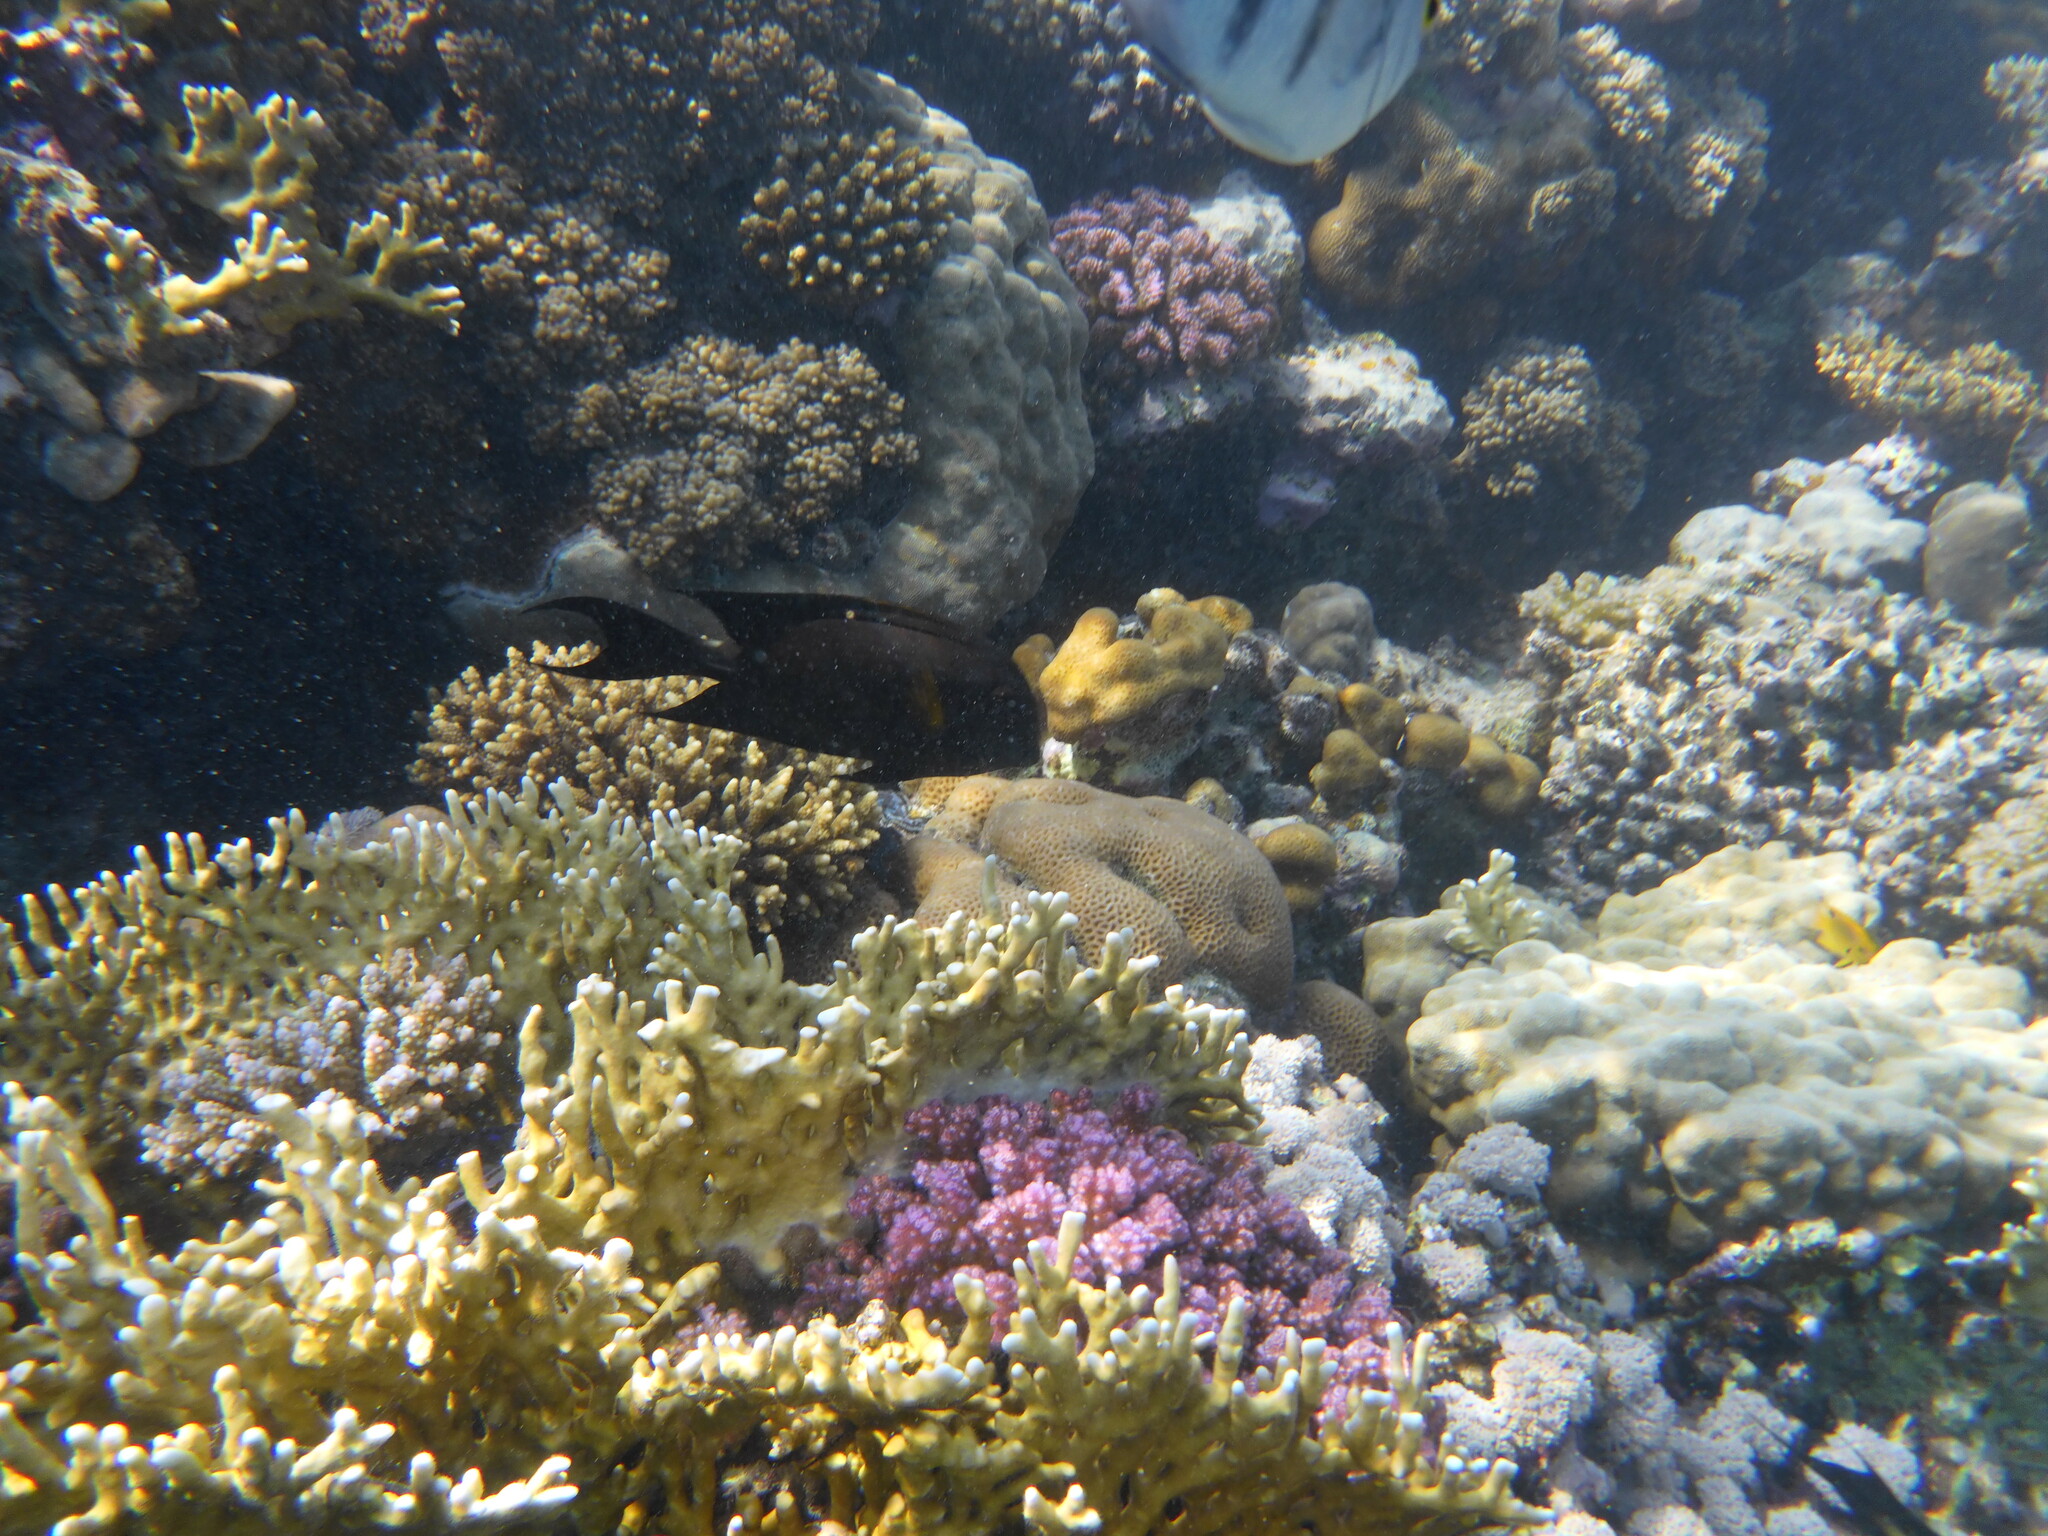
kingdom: Animalia
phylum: Chordata
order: Perciformes
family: Acanthuridae
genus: Ctenochaetus
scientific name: Ctenochaetus striatus
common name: Bristle-toothed surgeonfish
